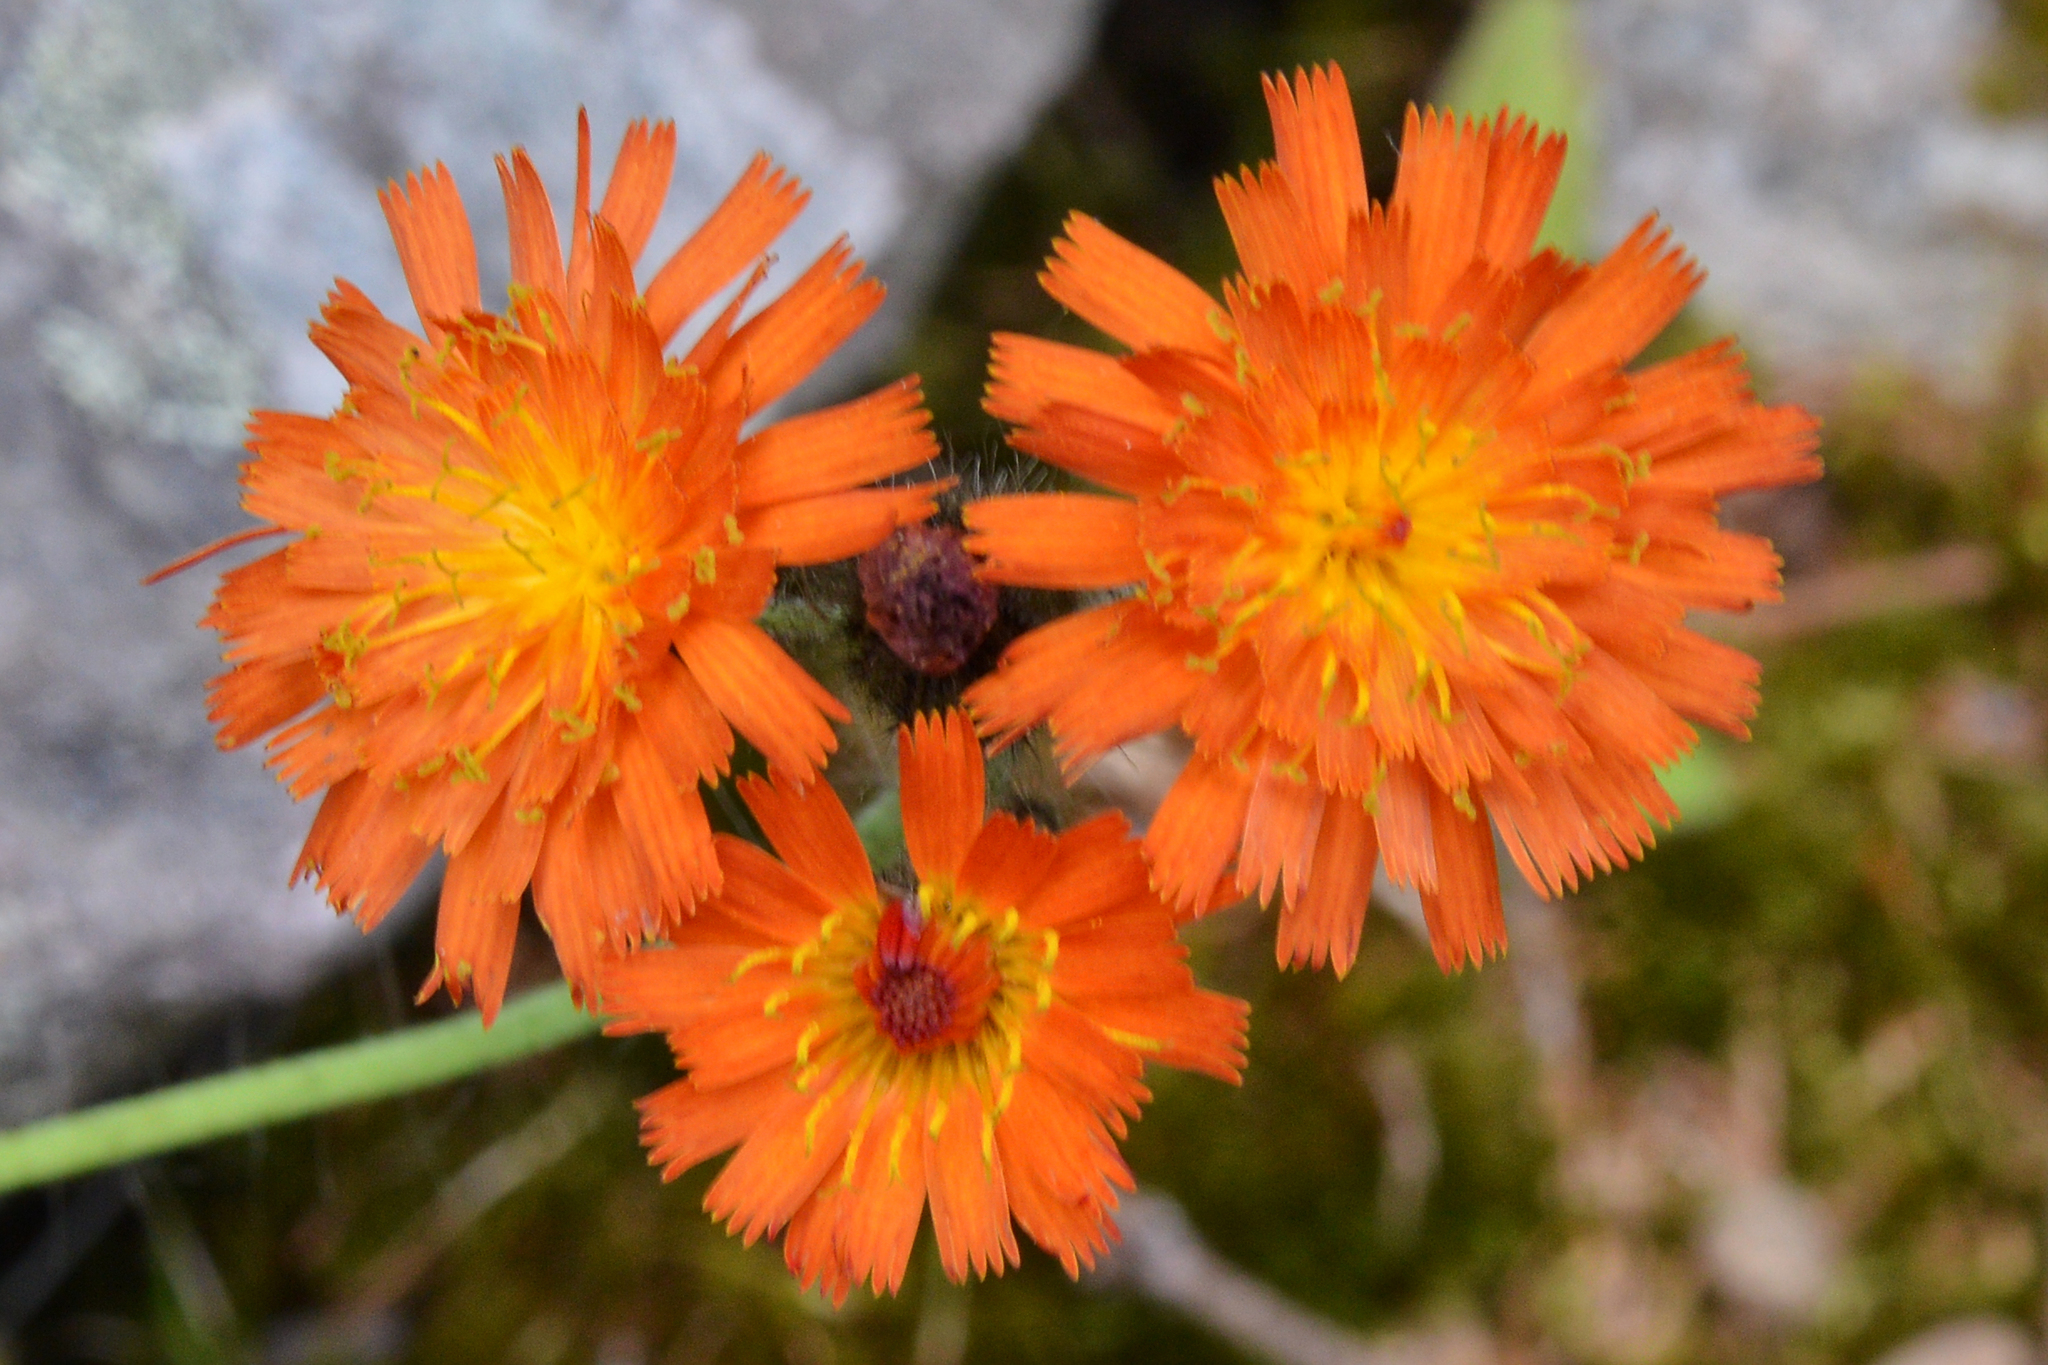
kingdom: Plantae
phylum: Tracheophyta
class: Magnoliopsida
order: Asterales
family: Asteraceae
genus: Pilosella
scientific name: Pilosella aurantiaca
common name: Fox-and-cubs
